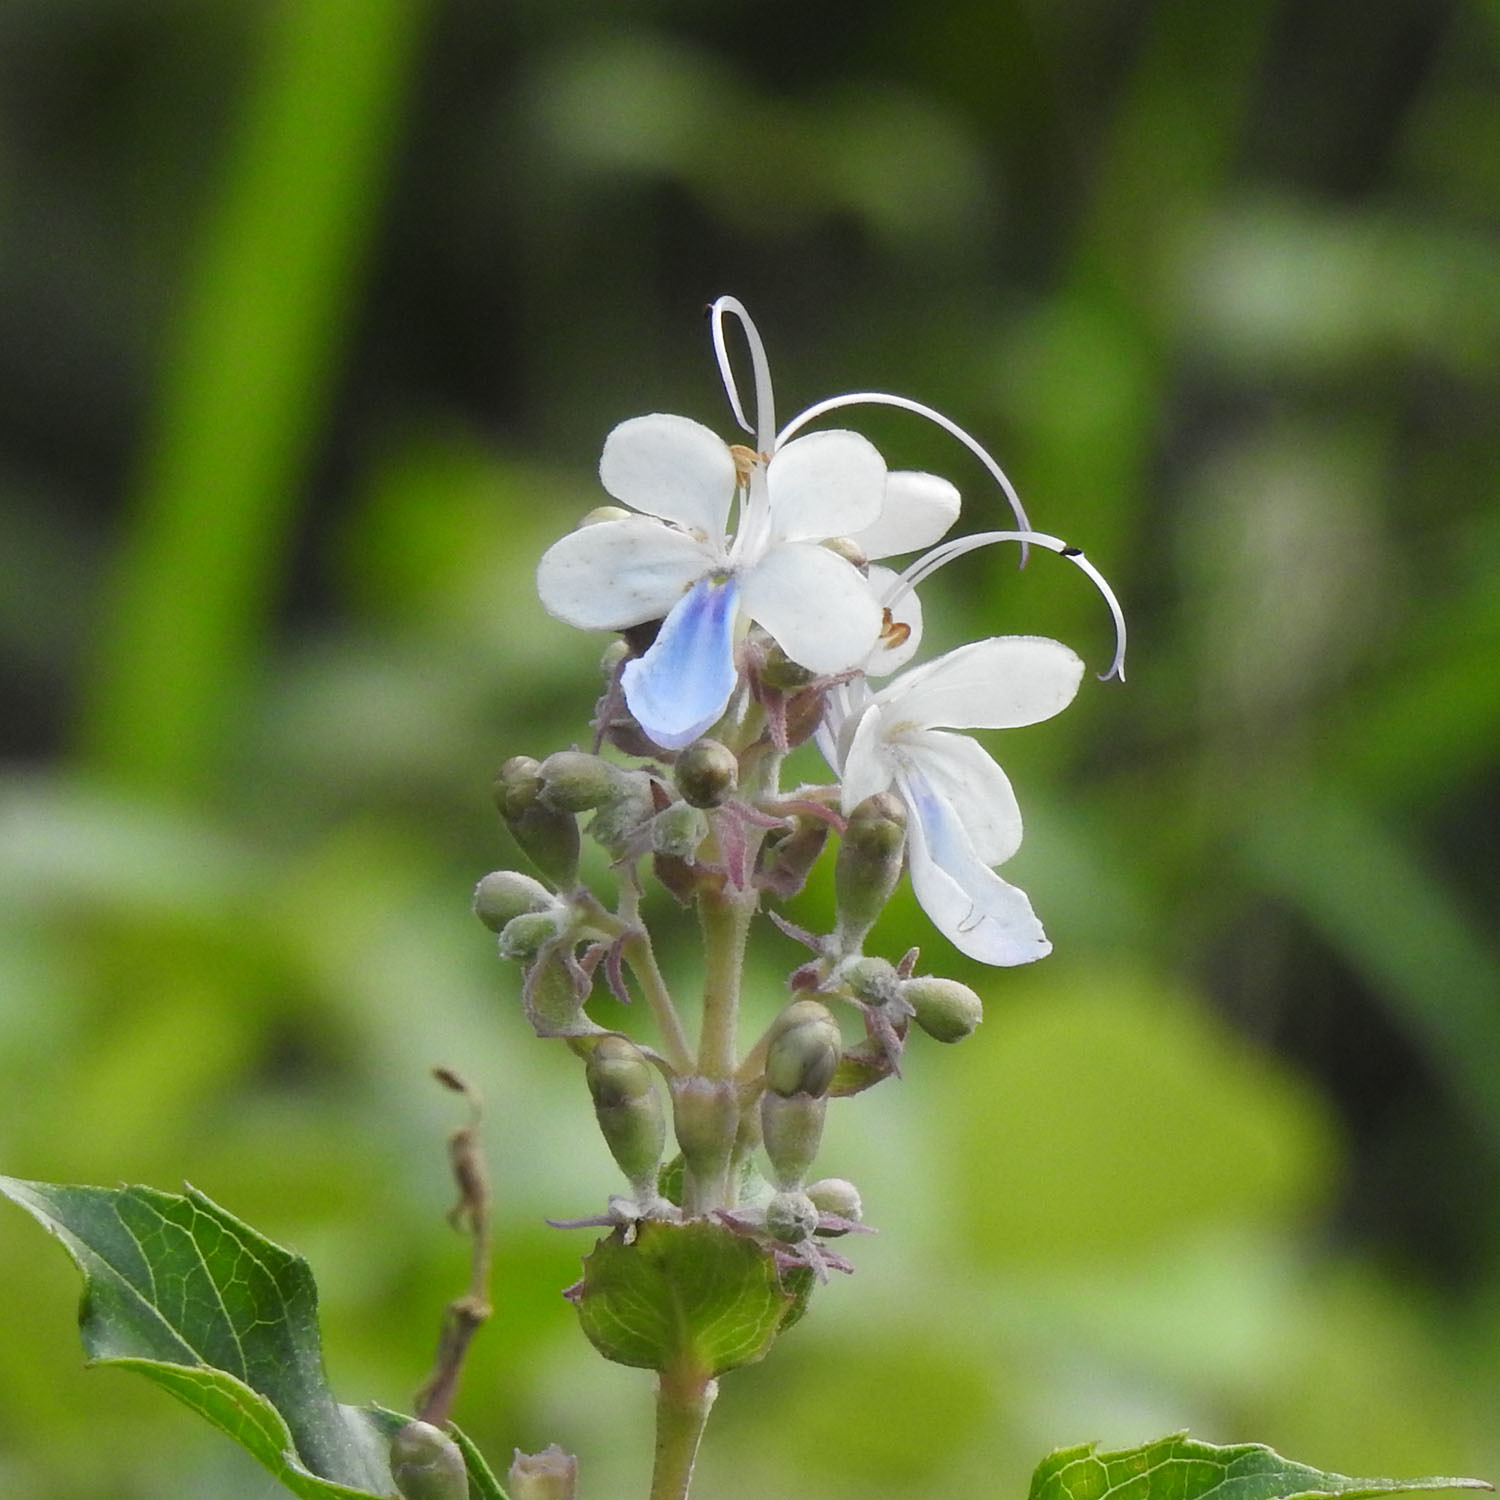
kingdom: Plantae
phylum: Tracheophyta
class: Magnoliopsida
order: Lamiales
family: Lamiaceae
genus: Rotheca
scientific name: Rotheca serrata
